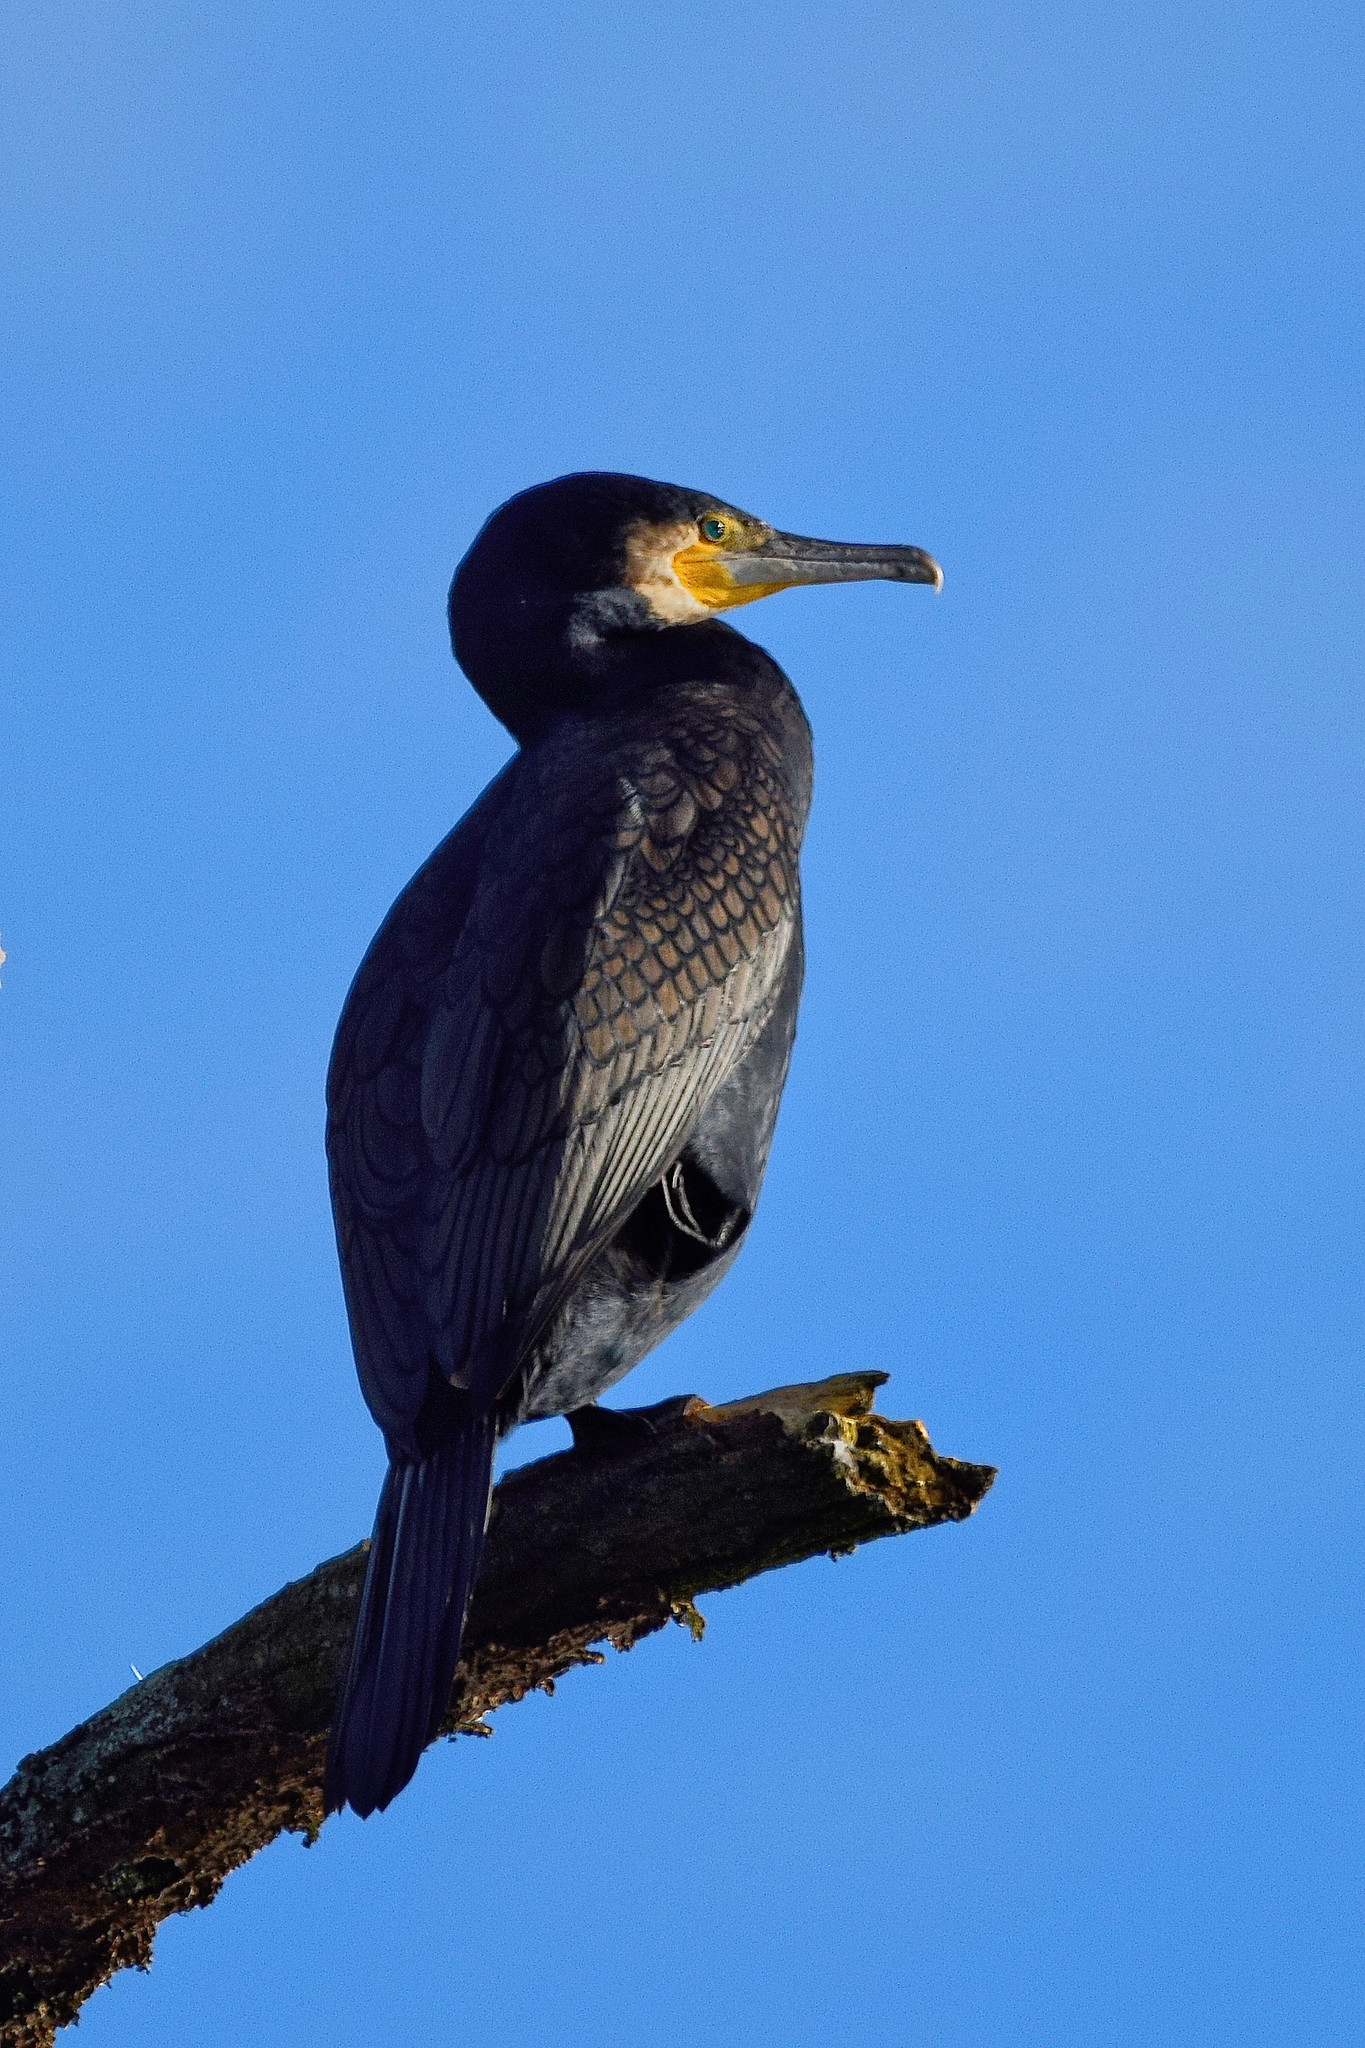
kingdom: Animalia
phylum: Chordata
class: Aves
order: Suliformes
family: Phalacrocoracidae
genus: Phalacrocorax
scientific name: Phalacrocorax carbo
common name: Great cormorant
